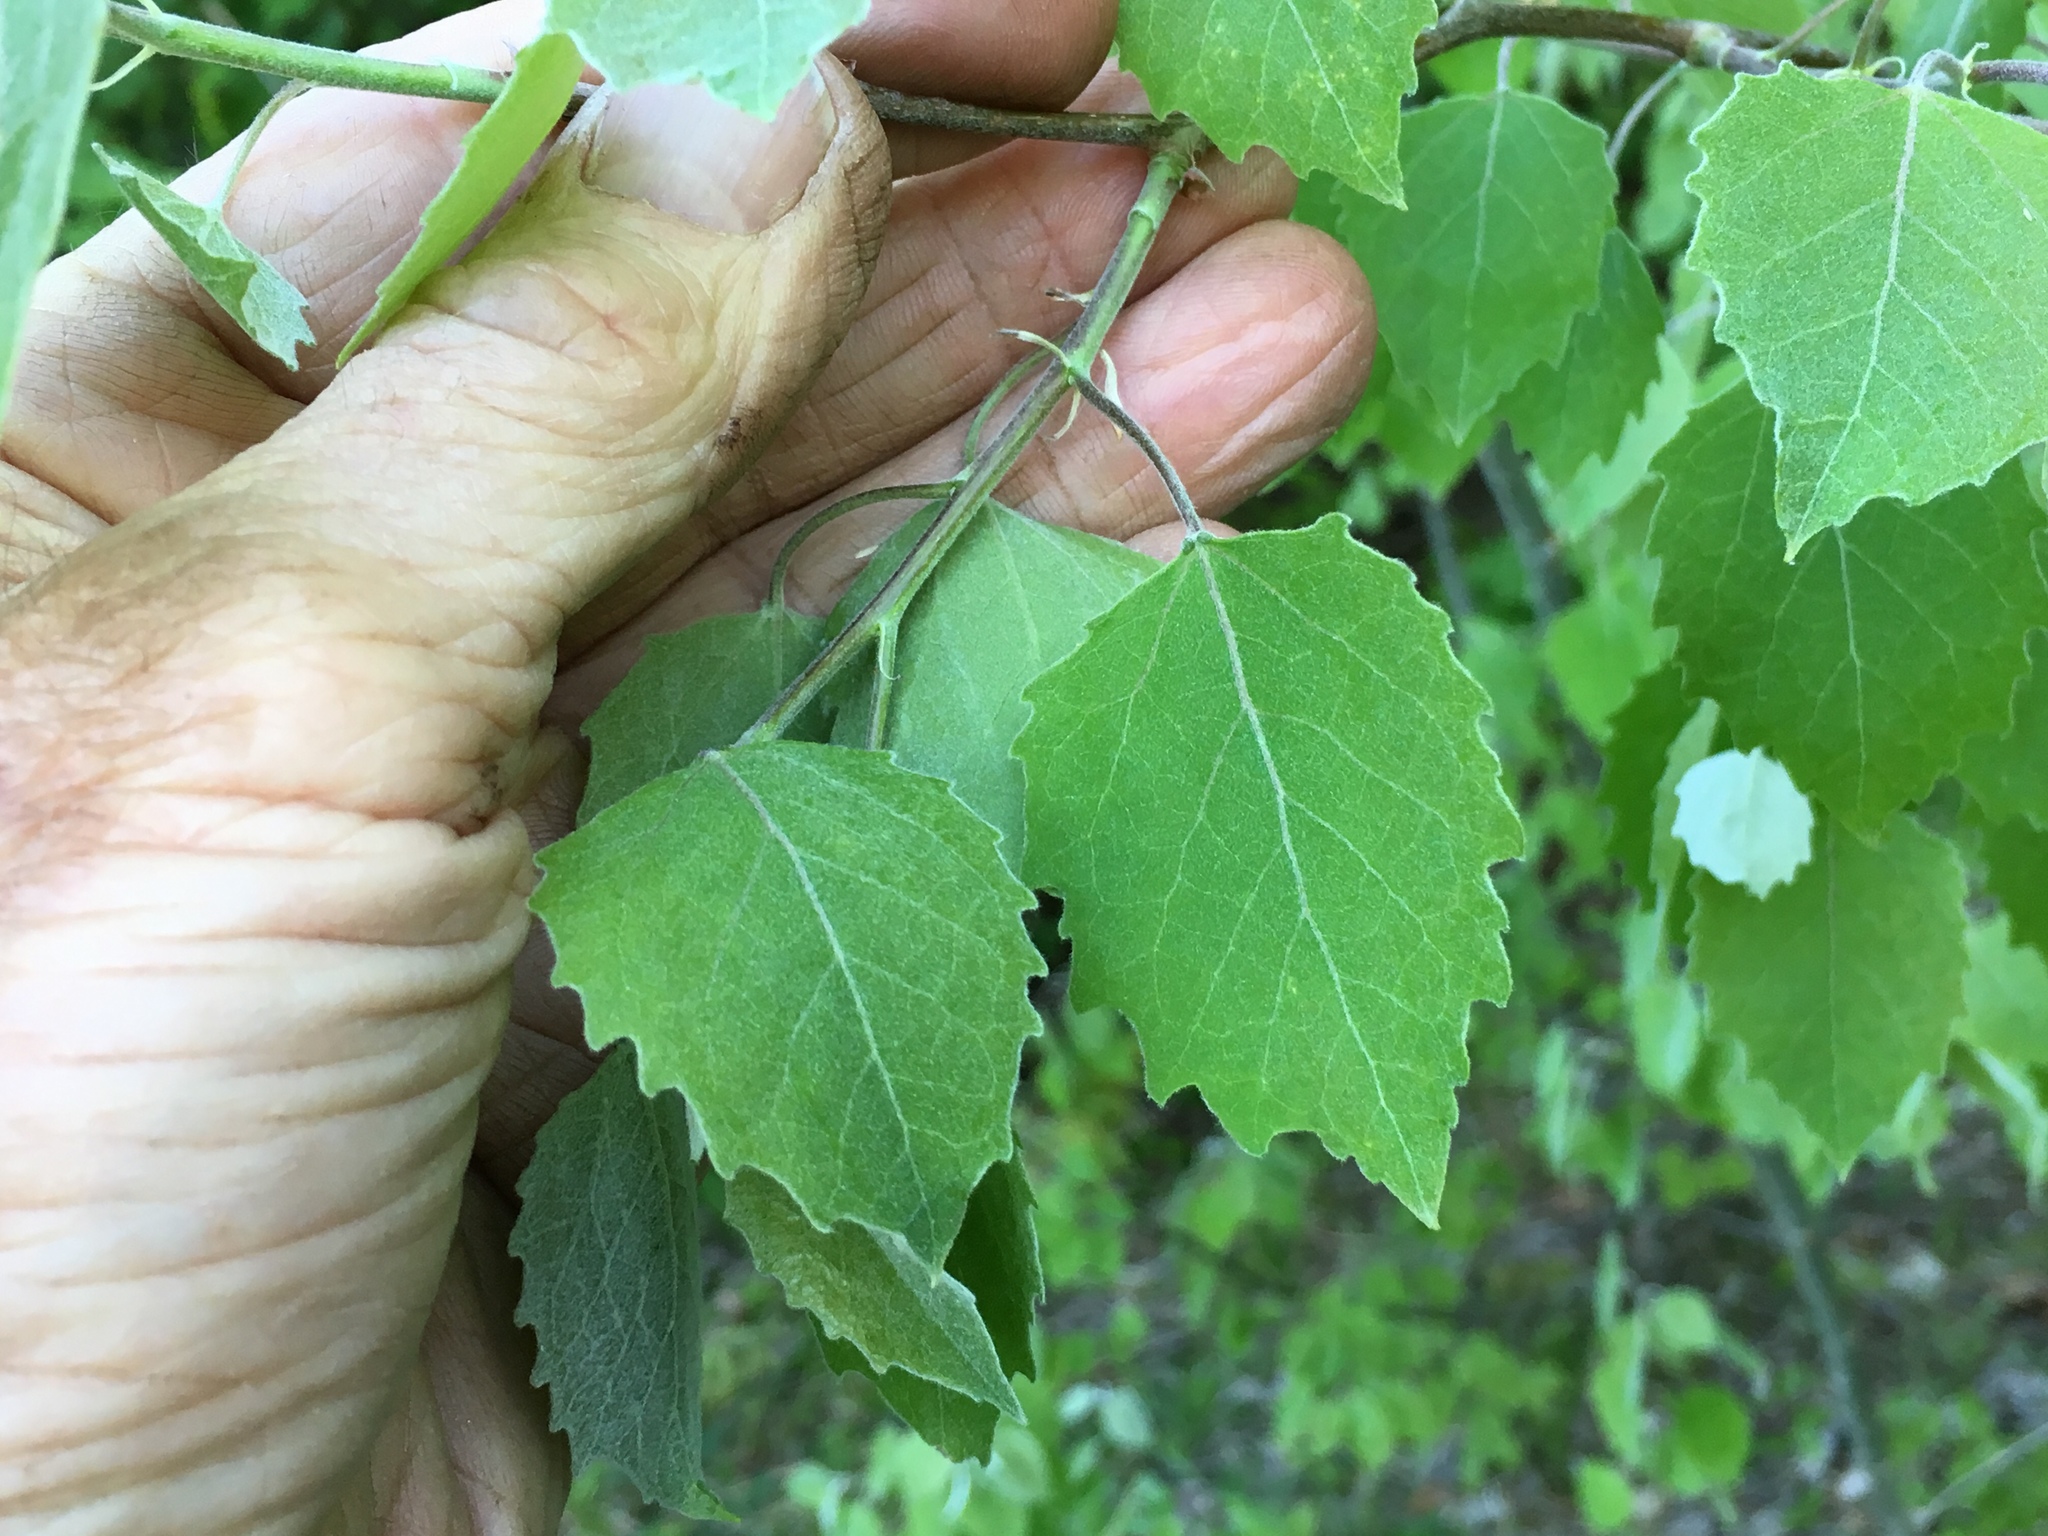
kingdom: Plantae
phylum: Tracheophyta
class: Magnoliopsida
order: Malpighiales
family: Salicaceae
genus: Populus
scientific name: Populus grandidentata
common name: Bigtooth aspen
